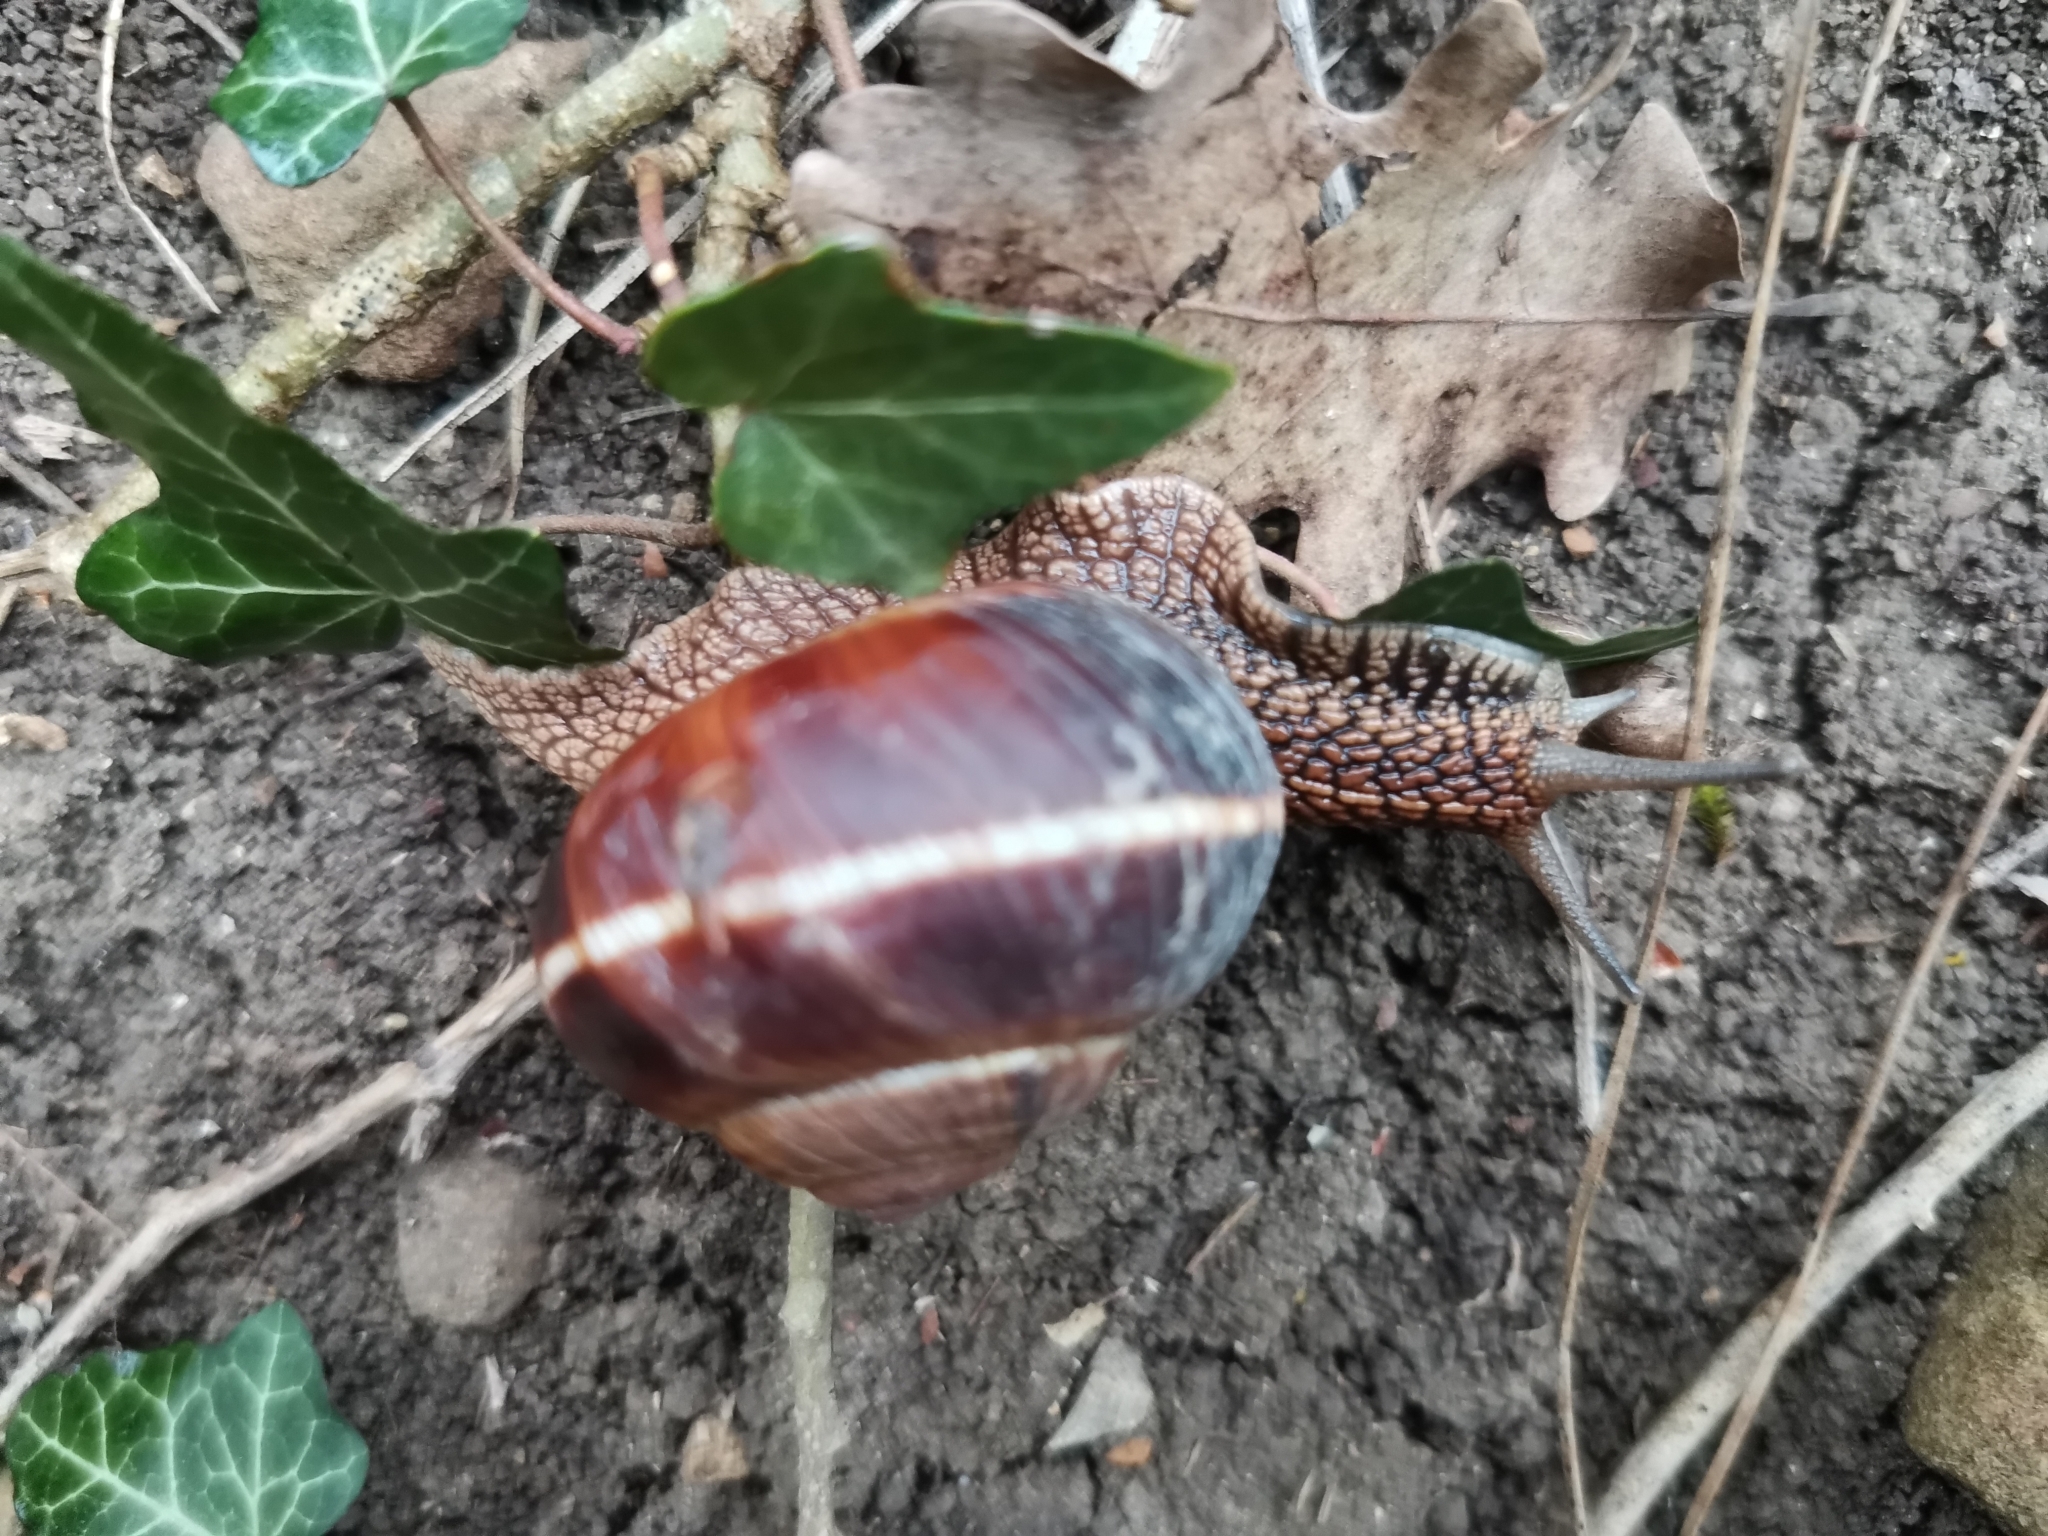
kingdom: Animalia
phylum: Mollusca
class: Gastropoda
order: Stylommatophora
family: Helicidae
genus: Helix
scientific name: Helix lucorum
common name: Turkish snail
